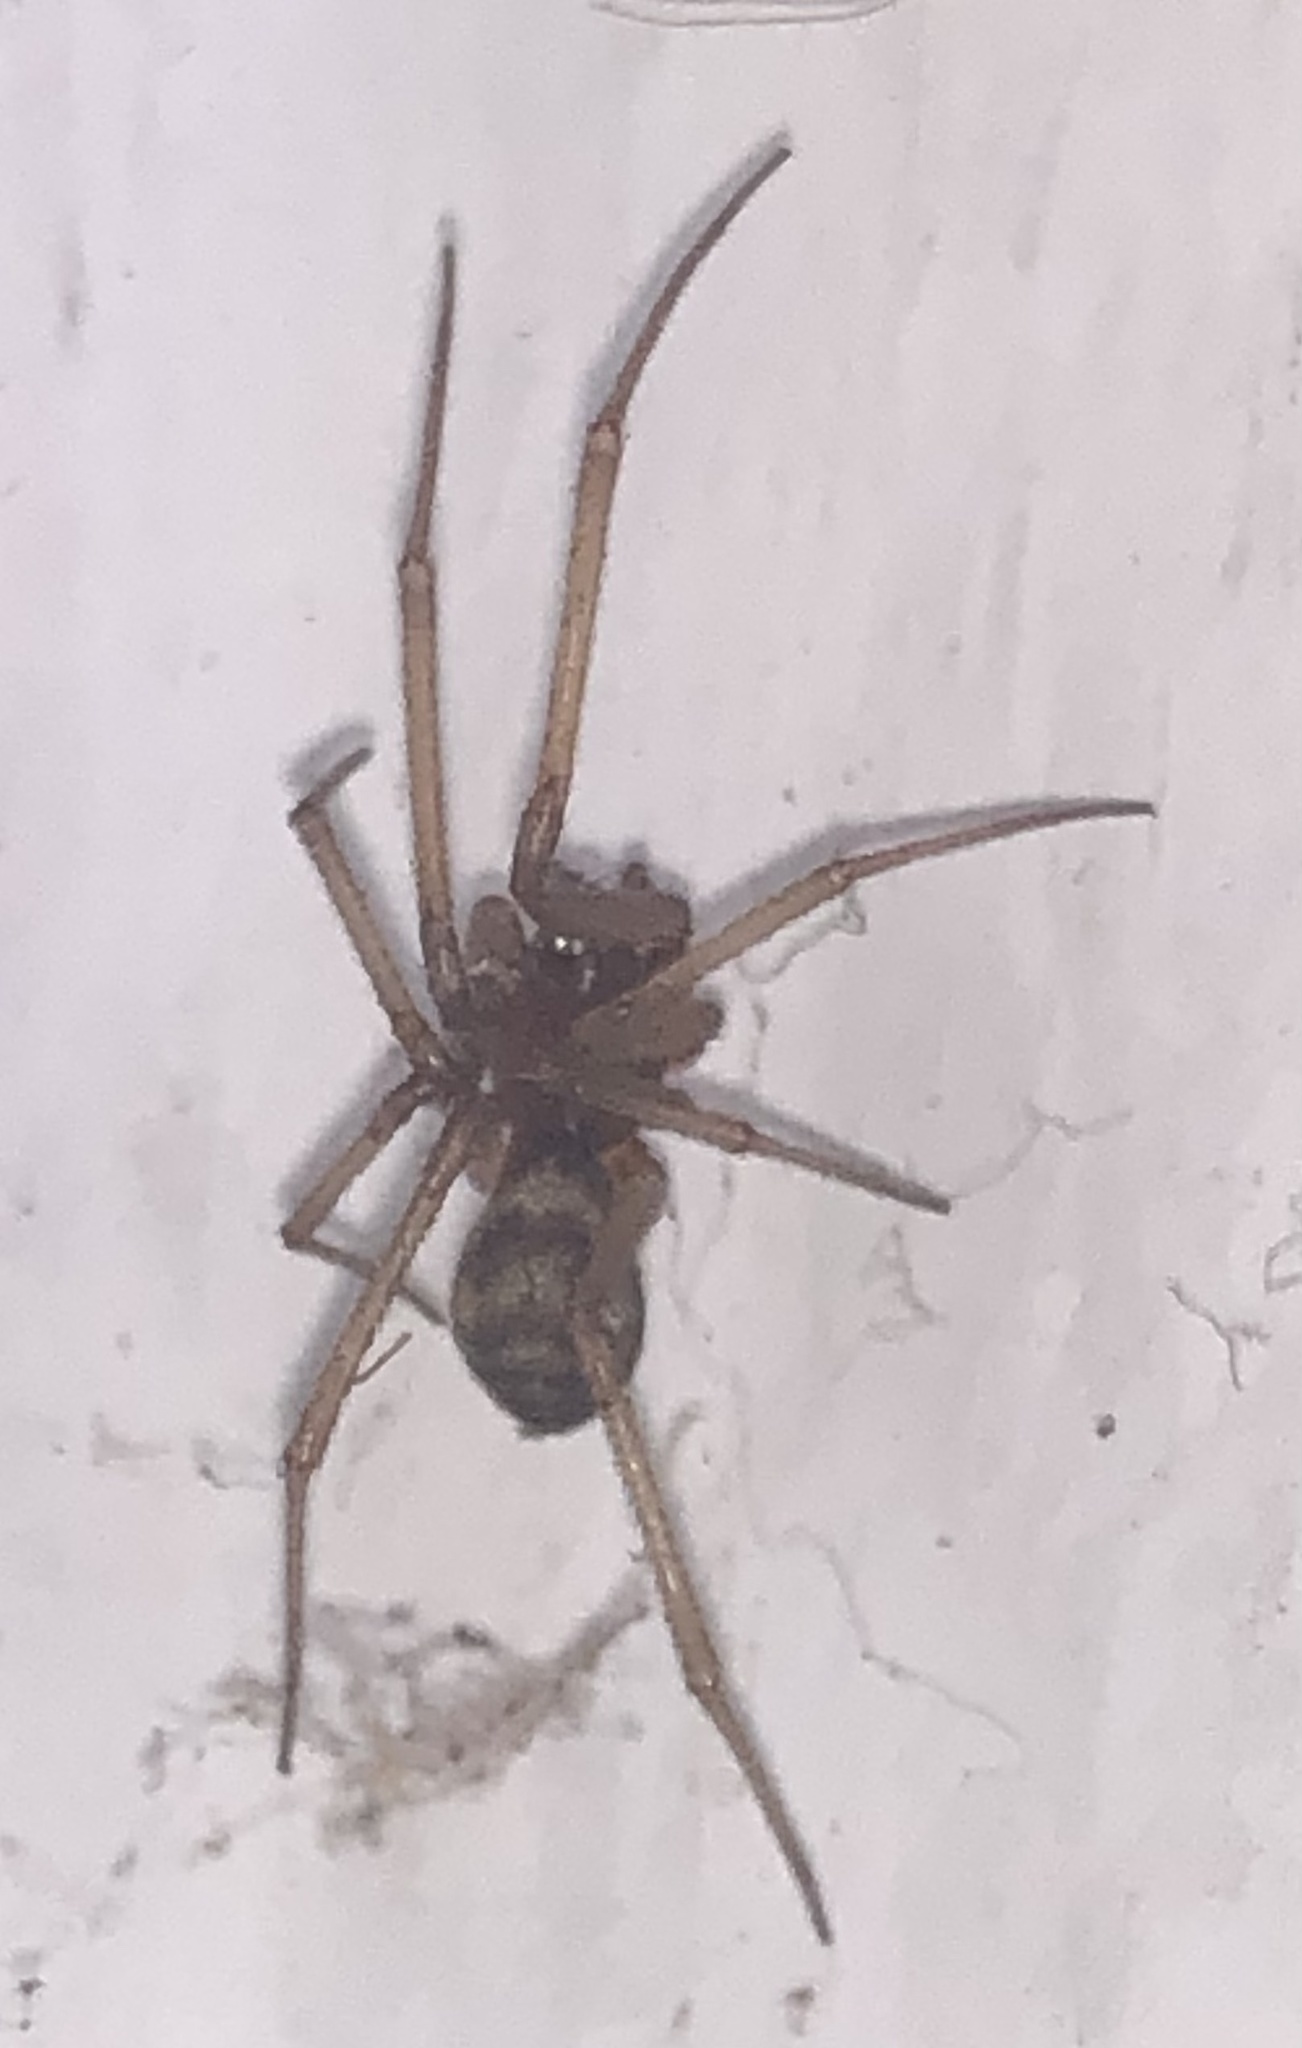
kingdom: Animalia
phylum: Arthropoda
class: Arachnida
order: Araneae
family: Theridiidae
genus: Steatoda
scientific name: Steatoda grossa
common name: False black widow
